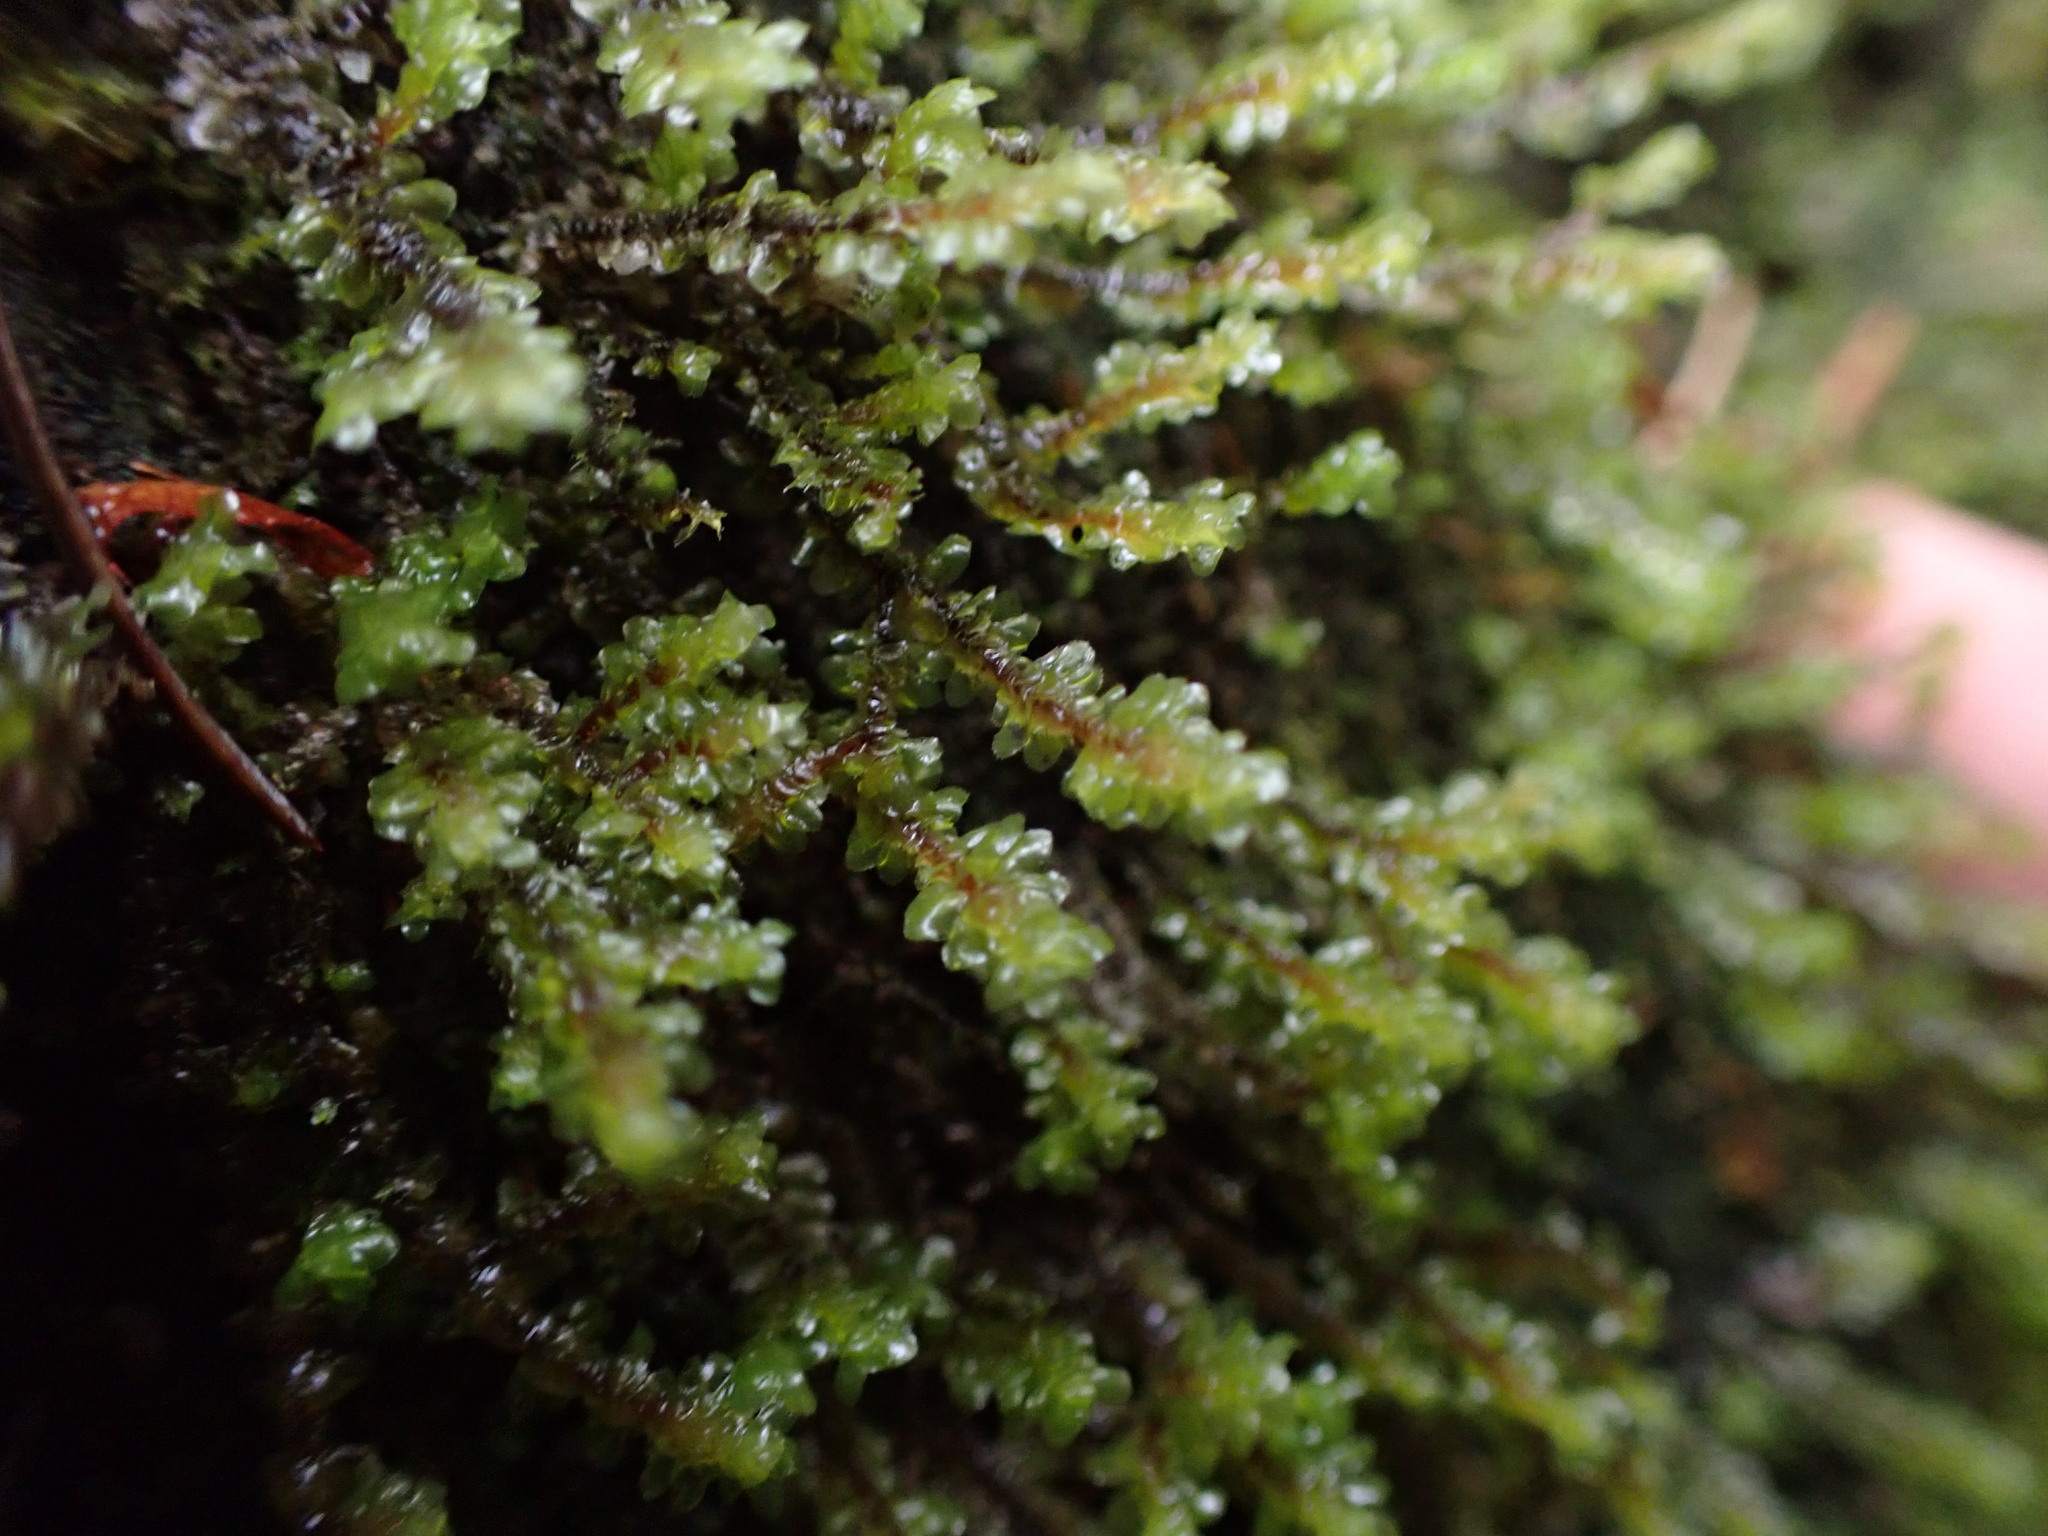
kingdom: Plantae
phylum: Marchantiophyta
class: Jungermanniopsida
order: Jungermanniales
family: Scapaniaceae
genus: Scapania
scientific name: Scapania bolanderi
